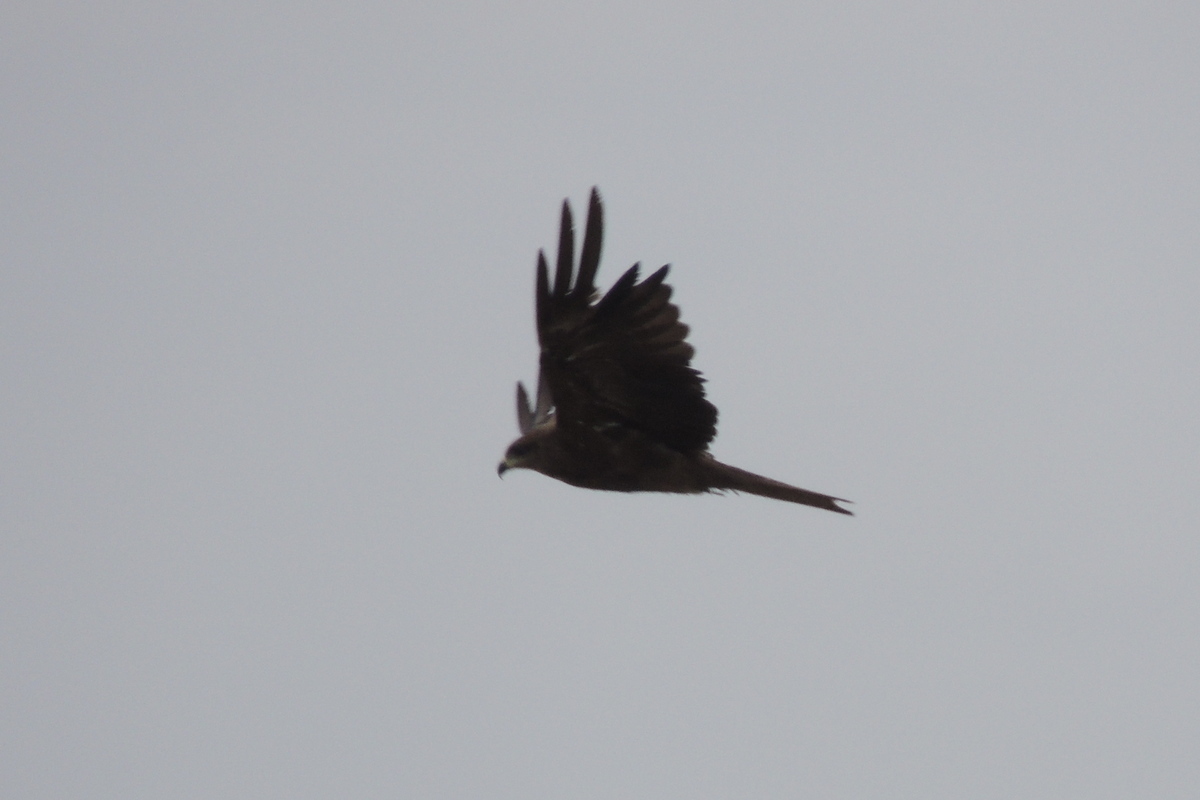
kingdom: Animalia
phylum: Chordata
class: Aves
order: Accipitriformes
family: Accipitridae
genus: Milvus
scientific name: Milvus migrans
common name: Black kite
